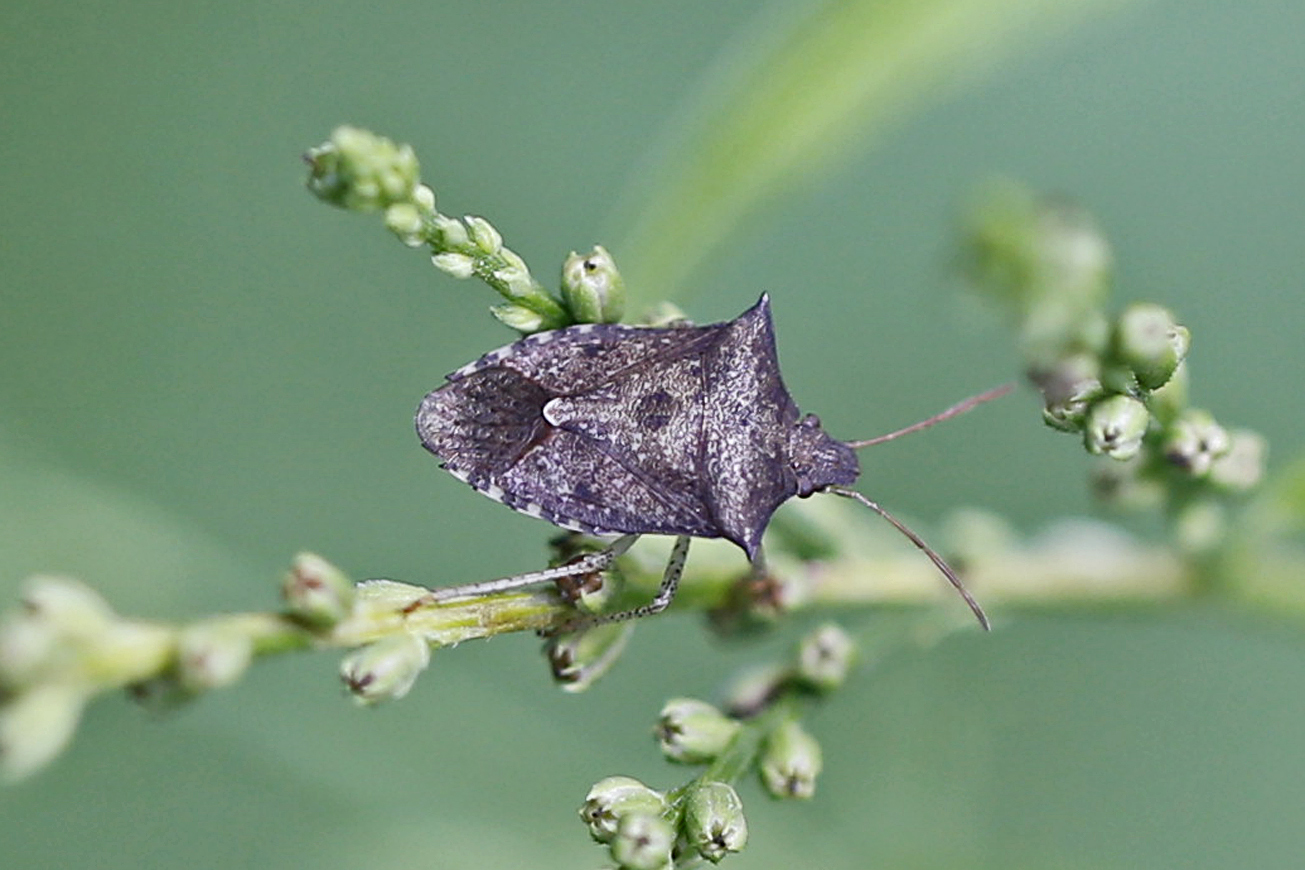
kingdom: Animalia
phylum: Arthropoda
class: Insecta
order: Hemiptera
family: Pentatomidae
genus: Euschistus
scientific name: Euschistus tristigmus
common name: Dusky stink bug
